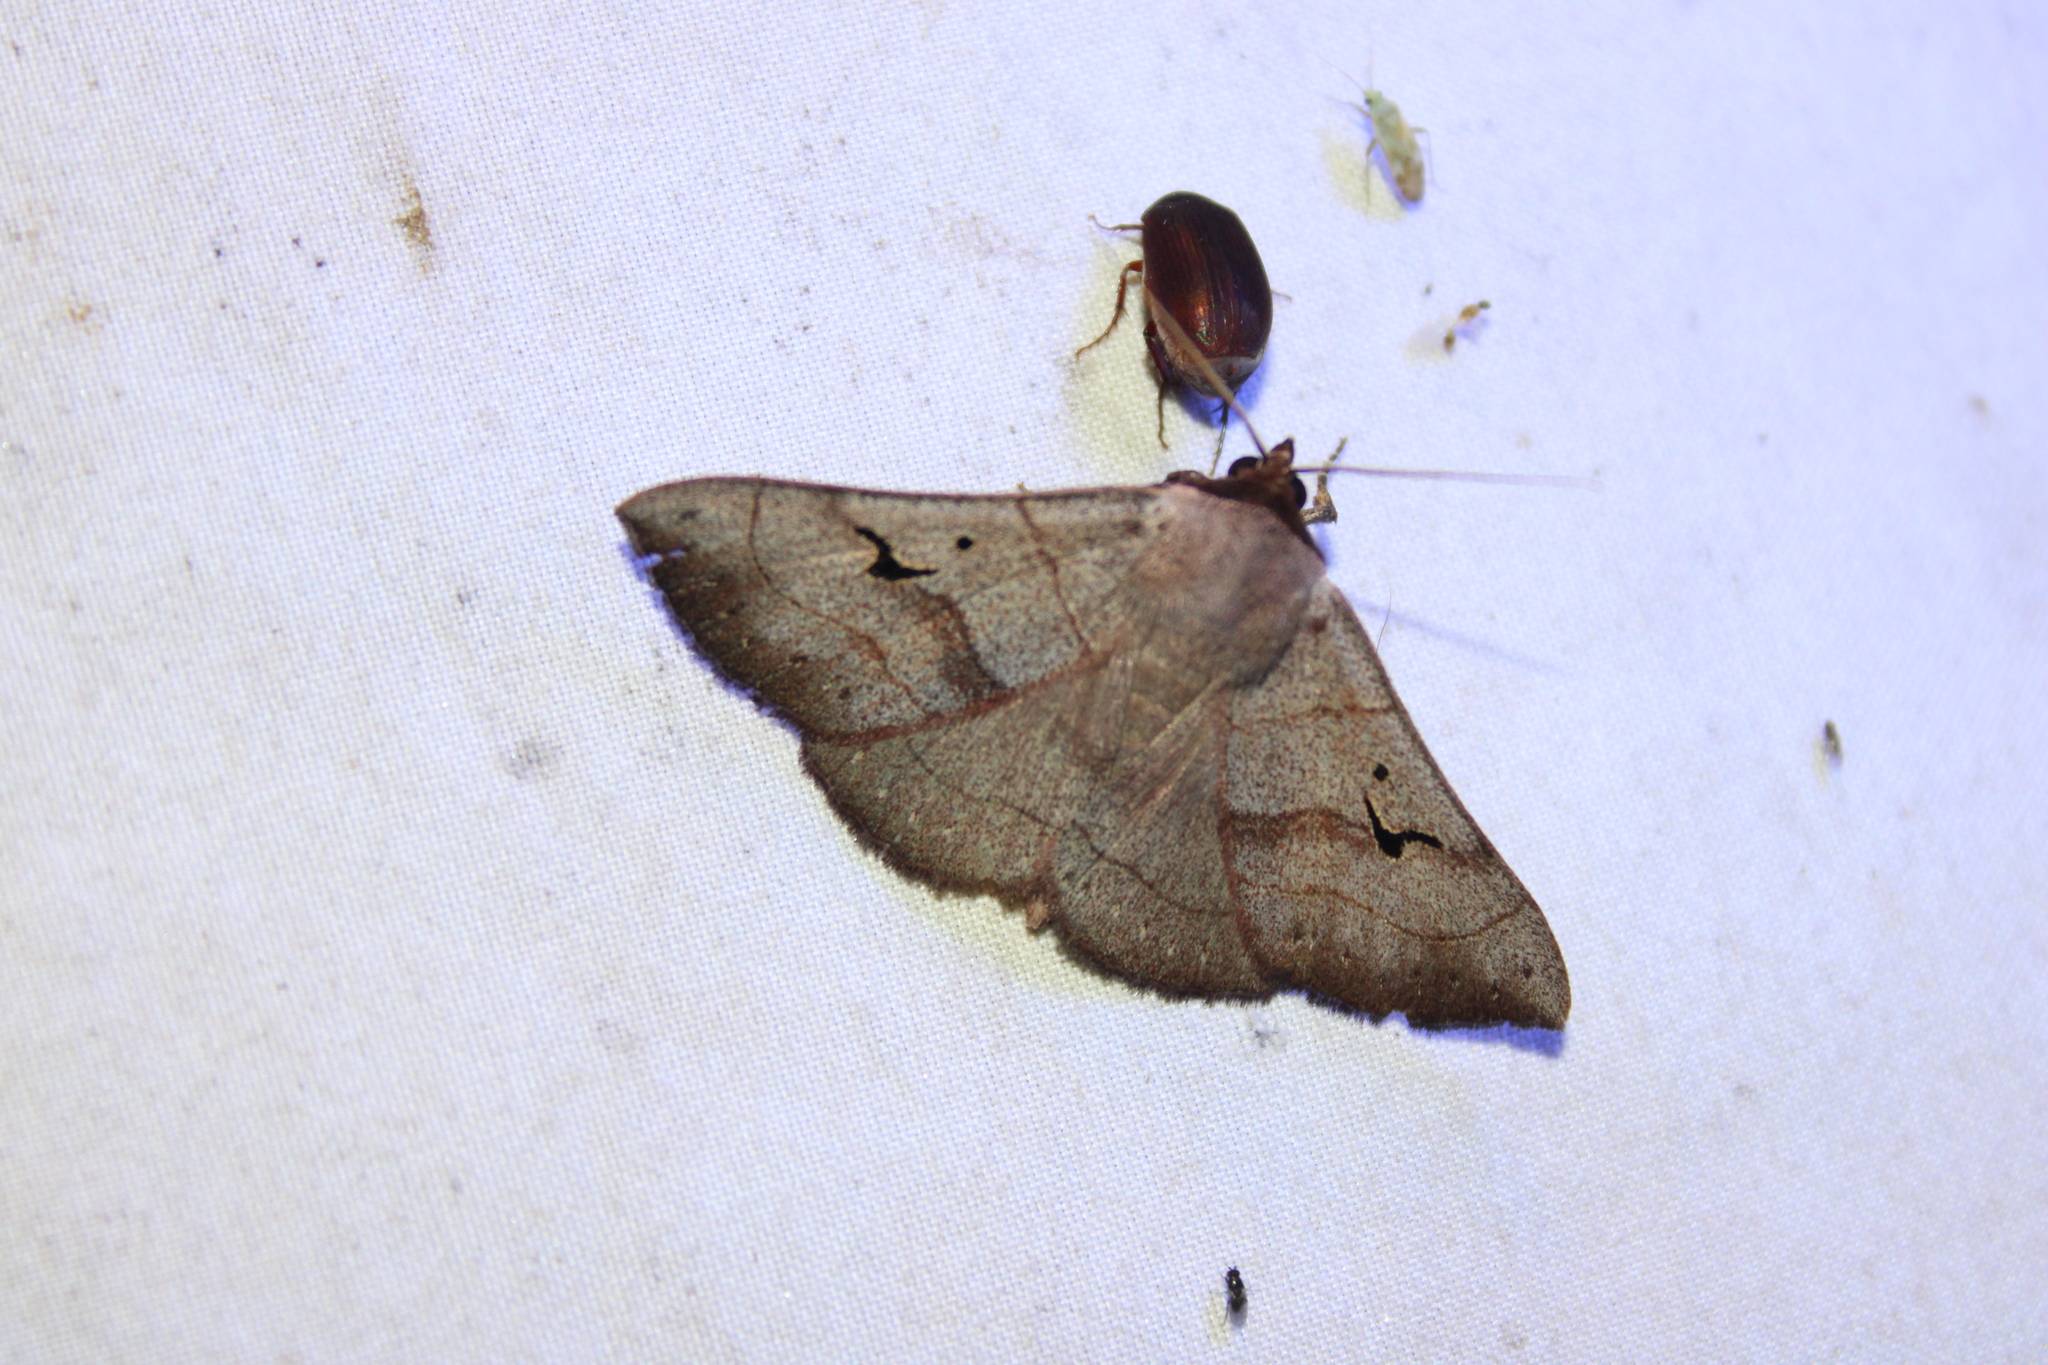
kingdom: Animalia
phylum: Arthropoda
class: Insecta
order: Lepidoptera
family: Erebidae
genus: Panopoda
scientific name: Panopoda carneicosta
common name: Brown panopoda moth
